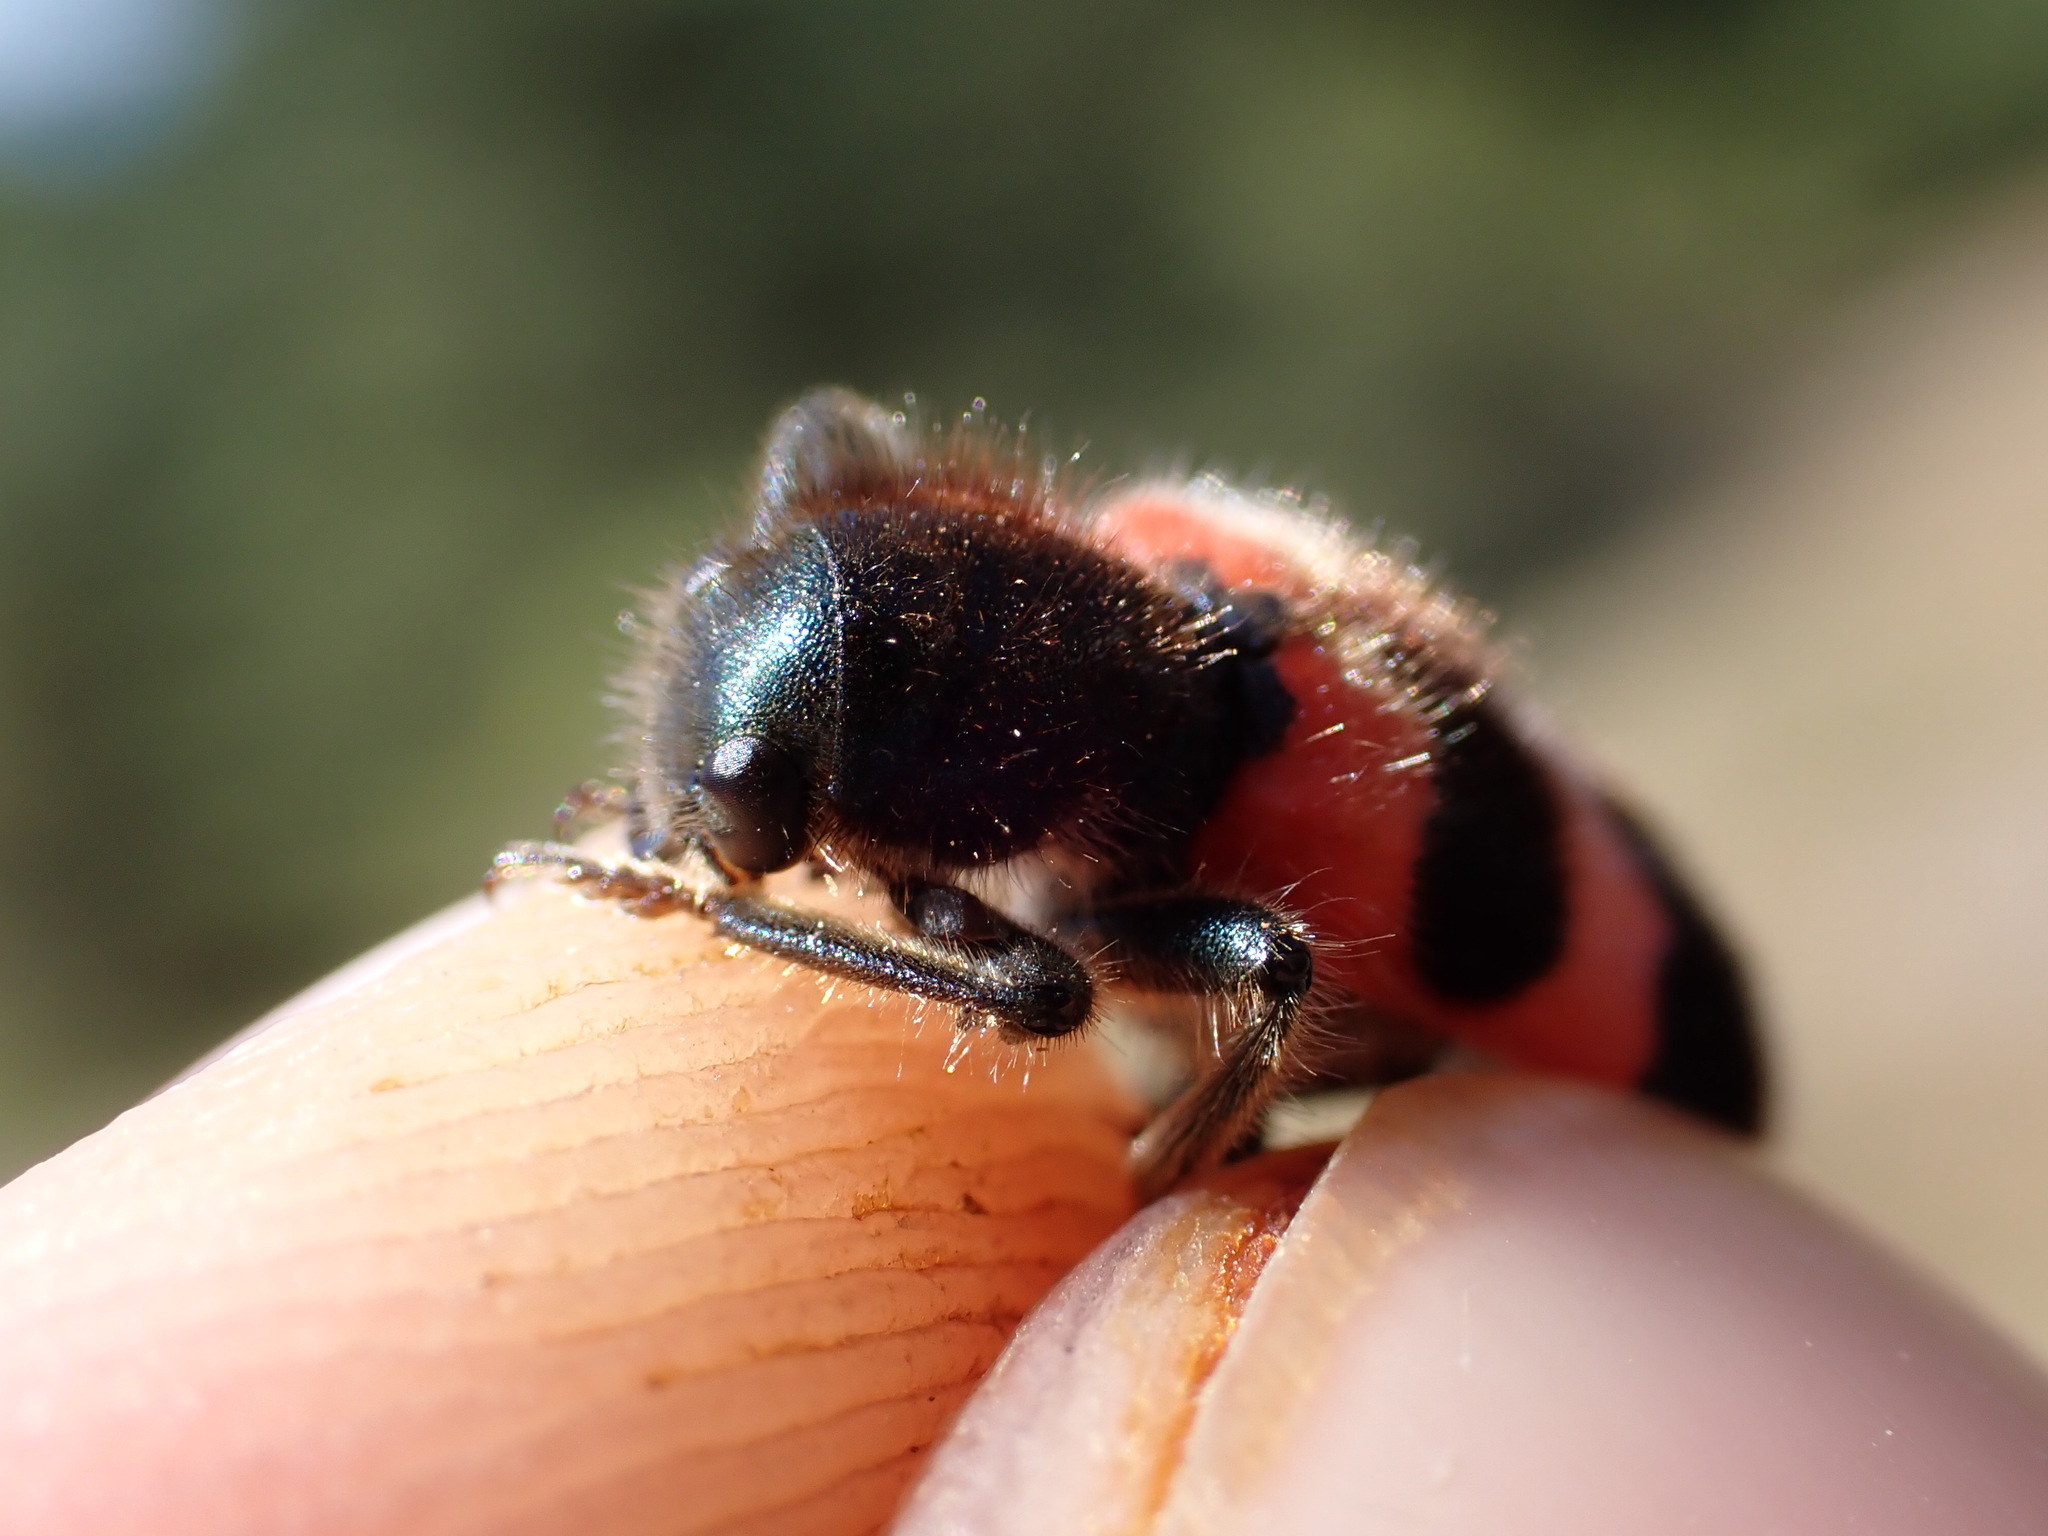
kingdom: Animalia
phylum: Arthropoda
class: Insecta
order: Coleoptera
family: Cleridae
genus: Trichodes
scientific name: Trichodes apiarius
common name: Bee-eating beetle
